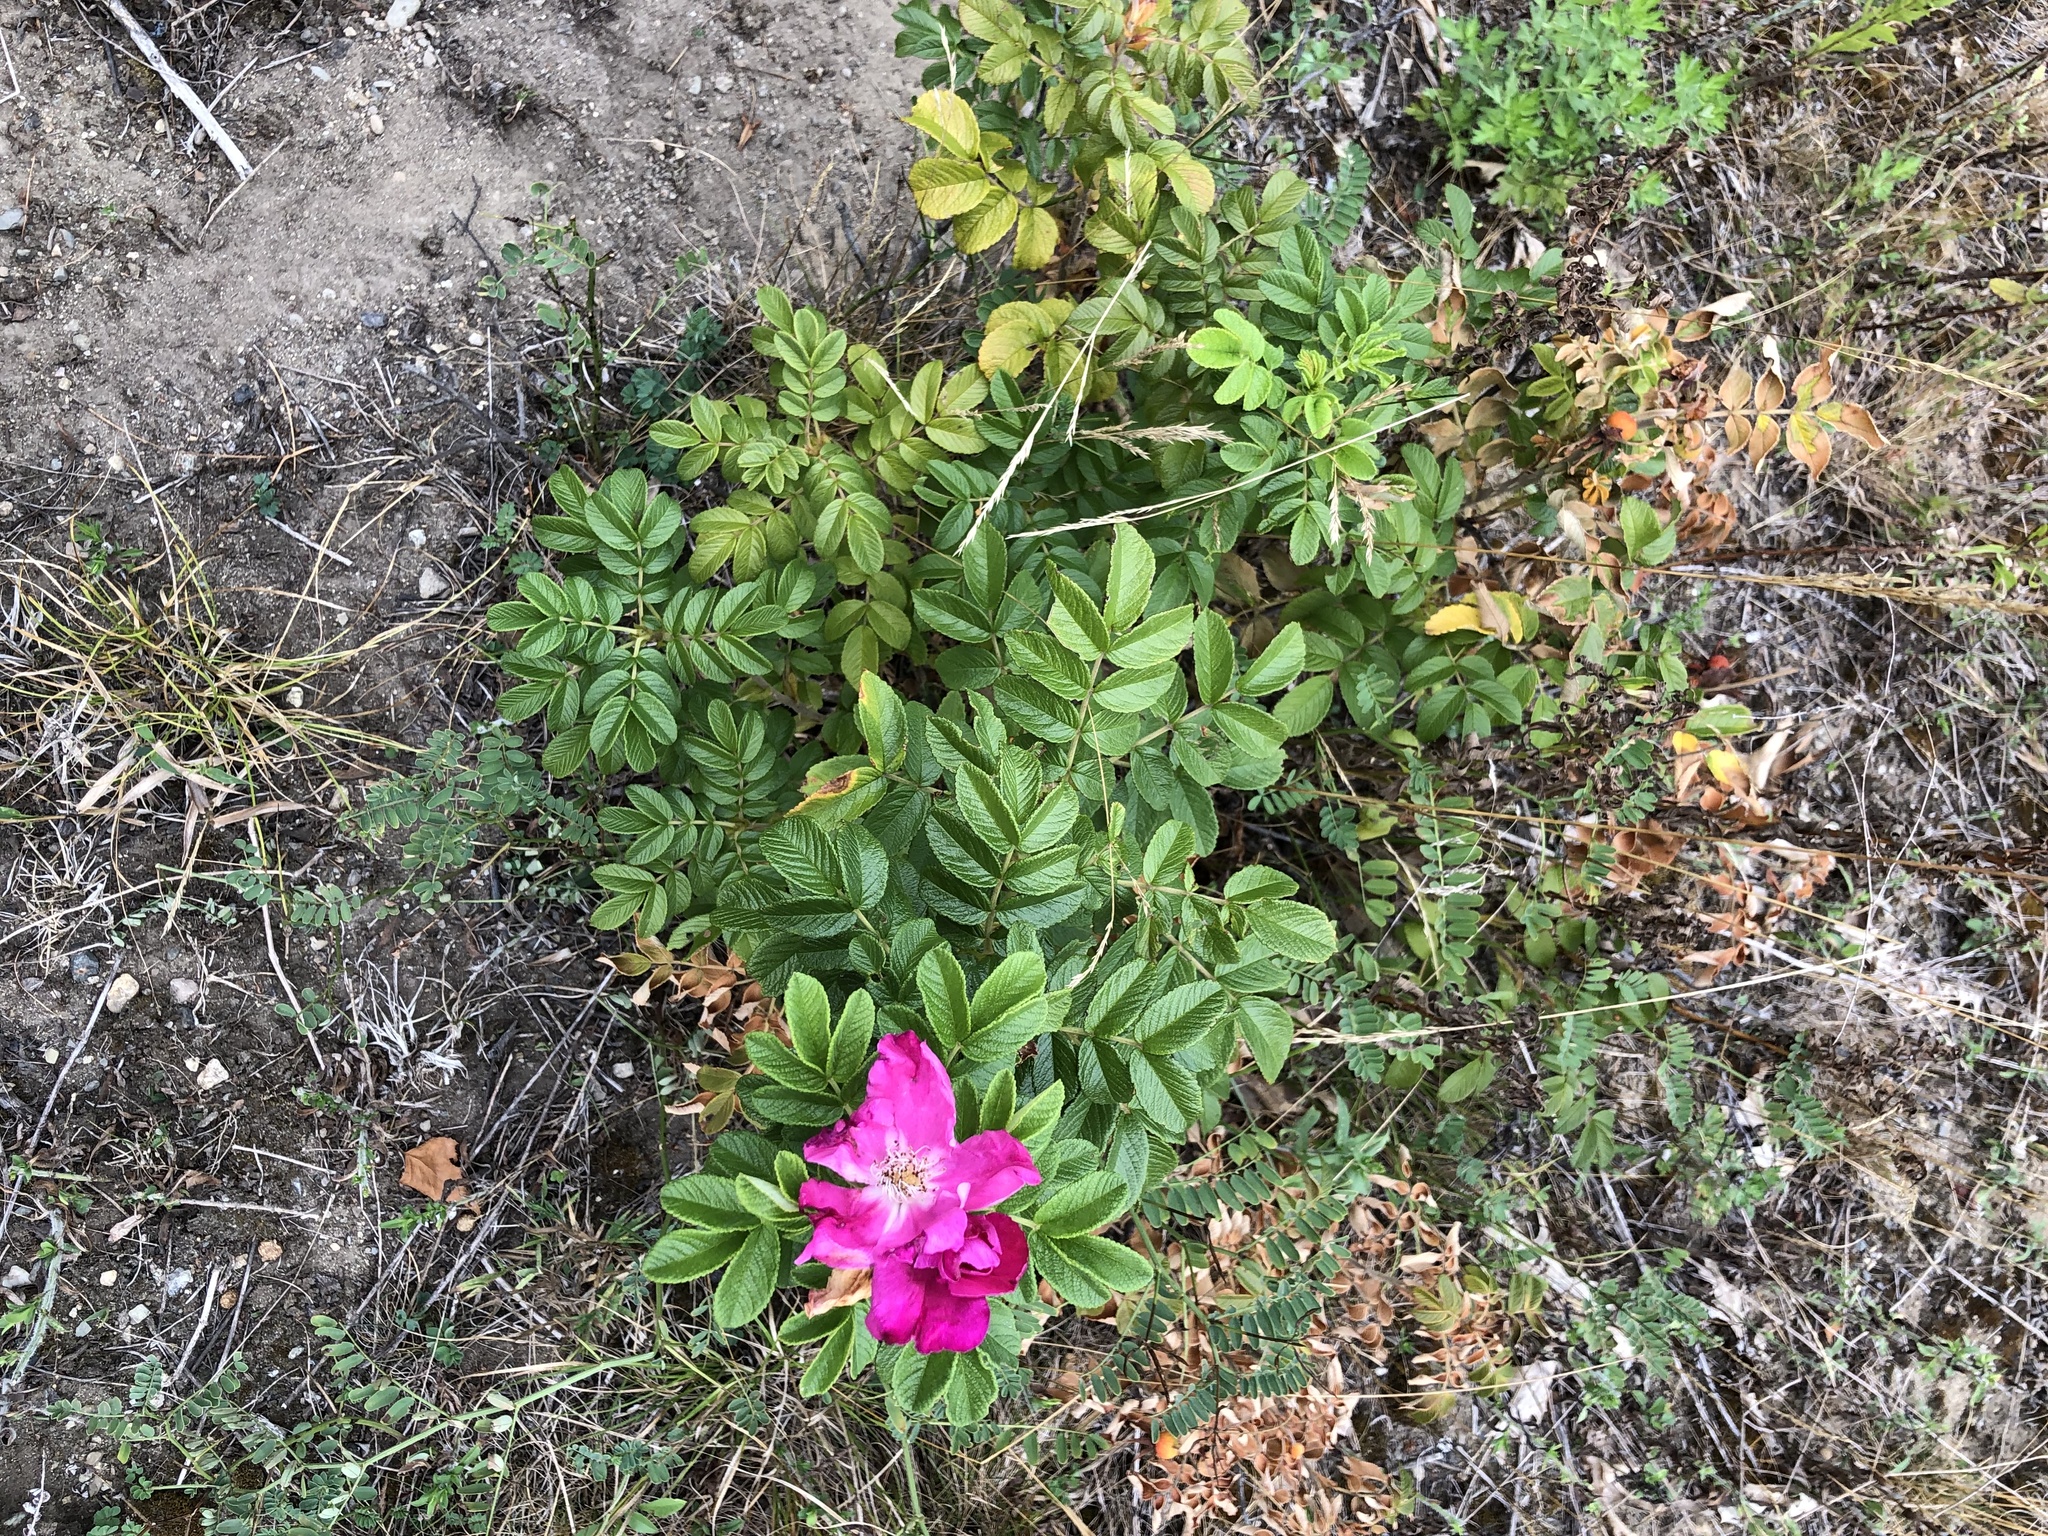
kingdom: Plantae
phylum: Tracheophyta
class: Magnoliopsida
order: Rosales
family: Rosaceae
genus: Rosa
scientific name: Rosa rugosa
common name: Japanese rose
